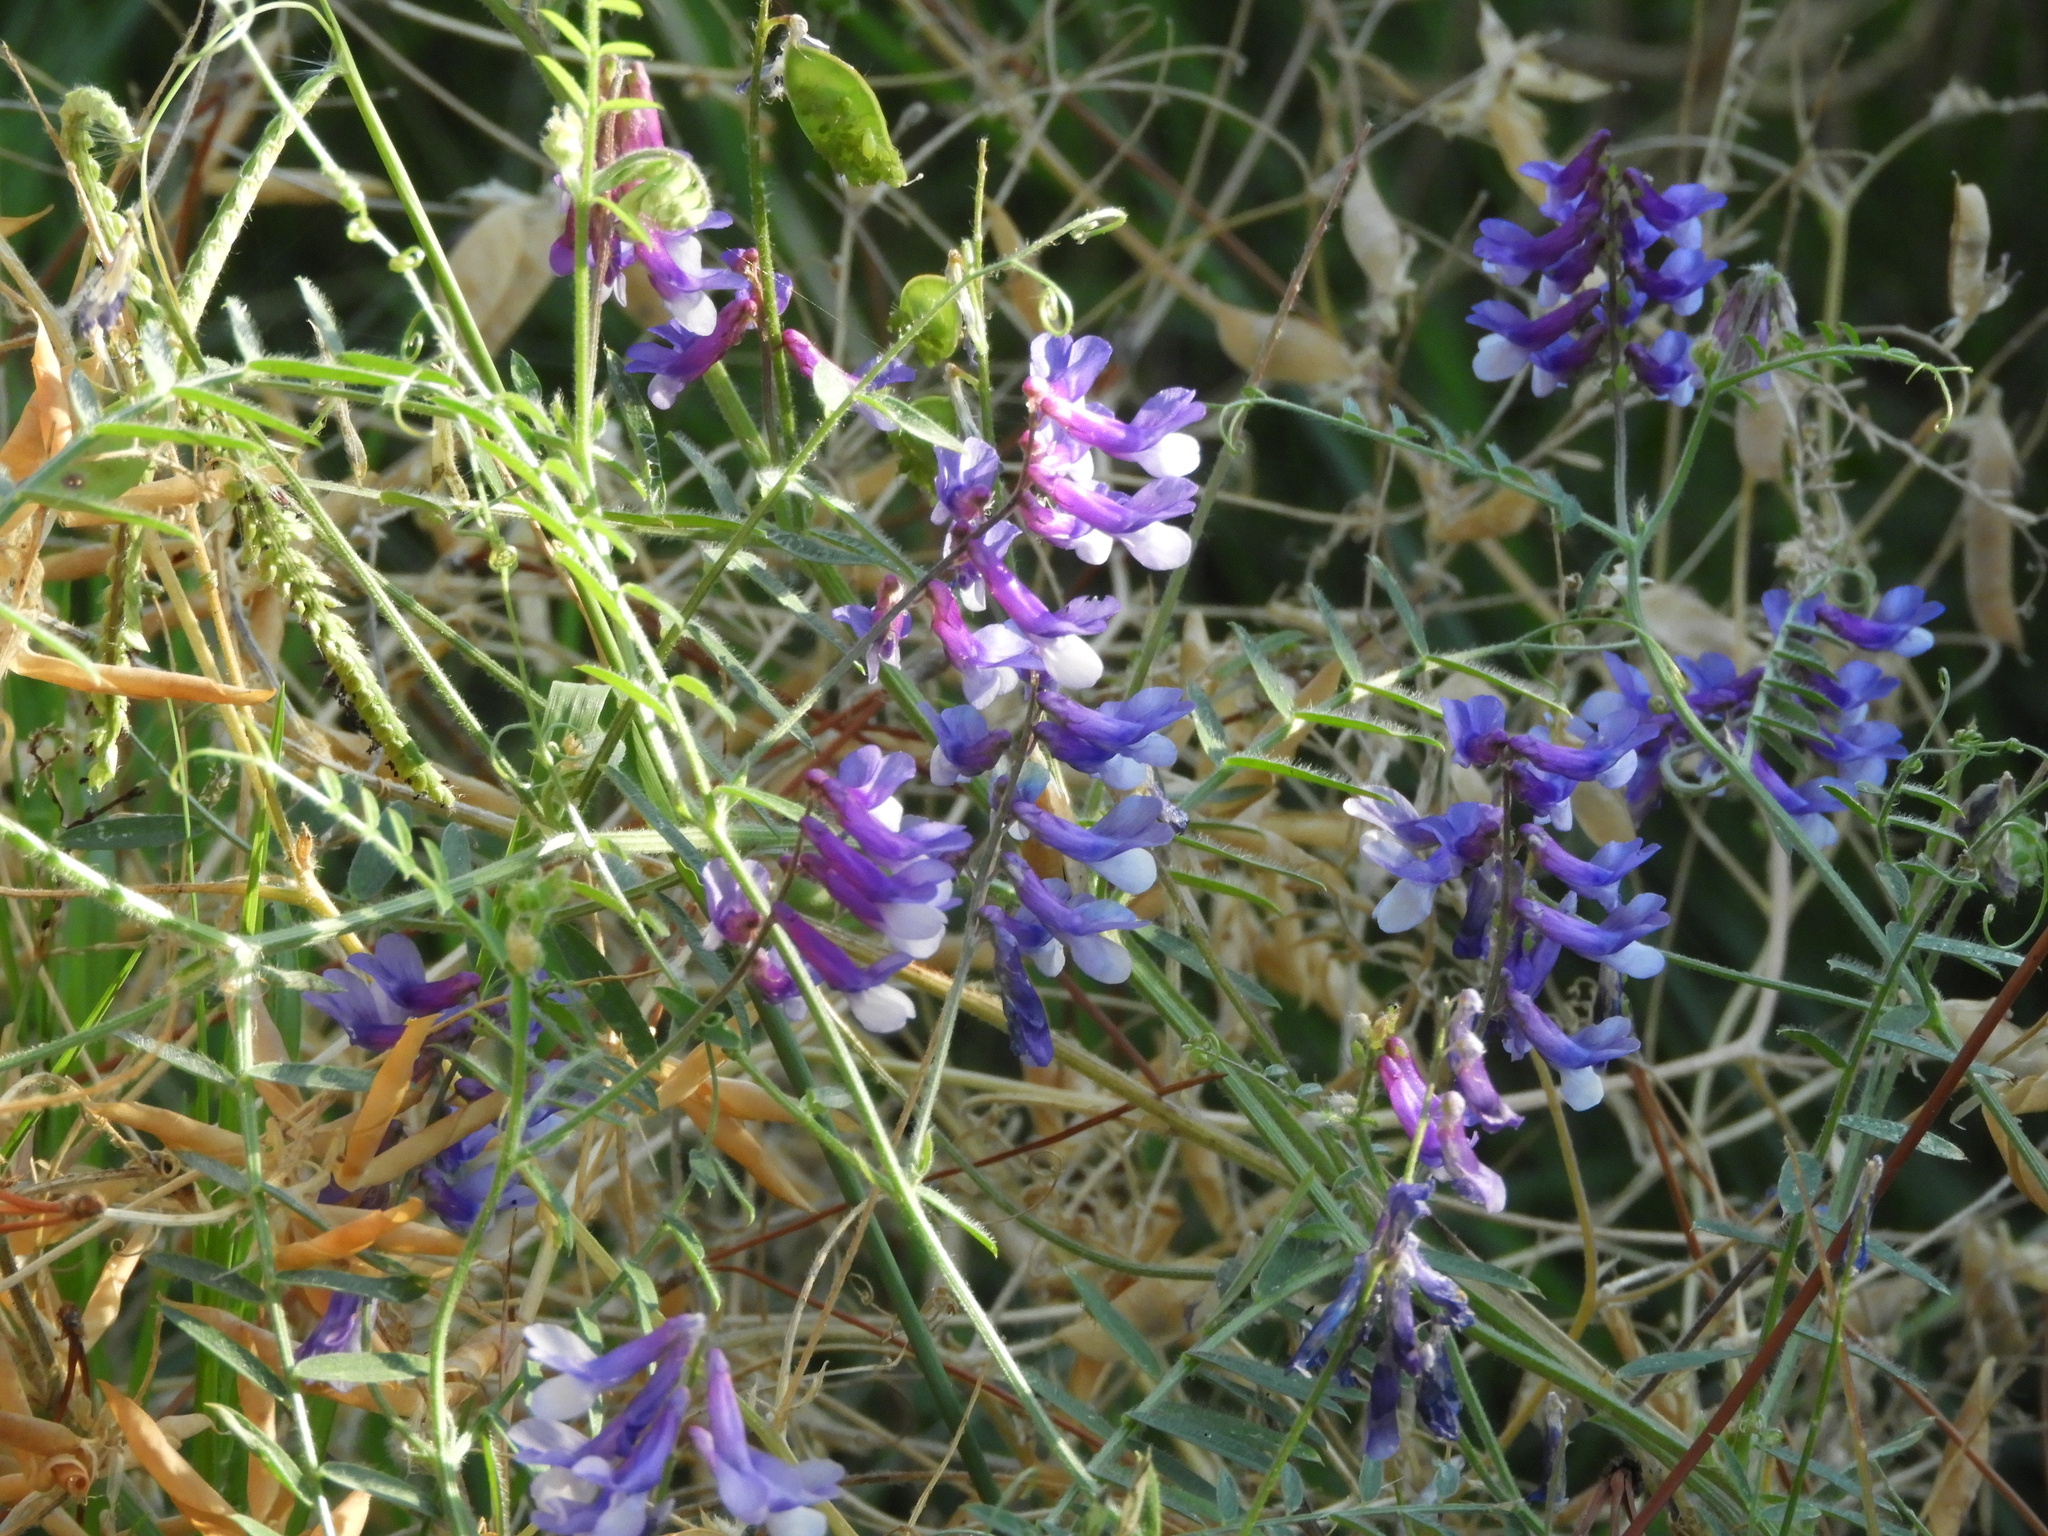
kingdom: Plantae
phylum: Tracheophyta
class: Magnoliopsida
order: Fabales
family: Fabaceae
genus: Vicia
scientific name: Vicia villosa
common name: Fodder vetch
